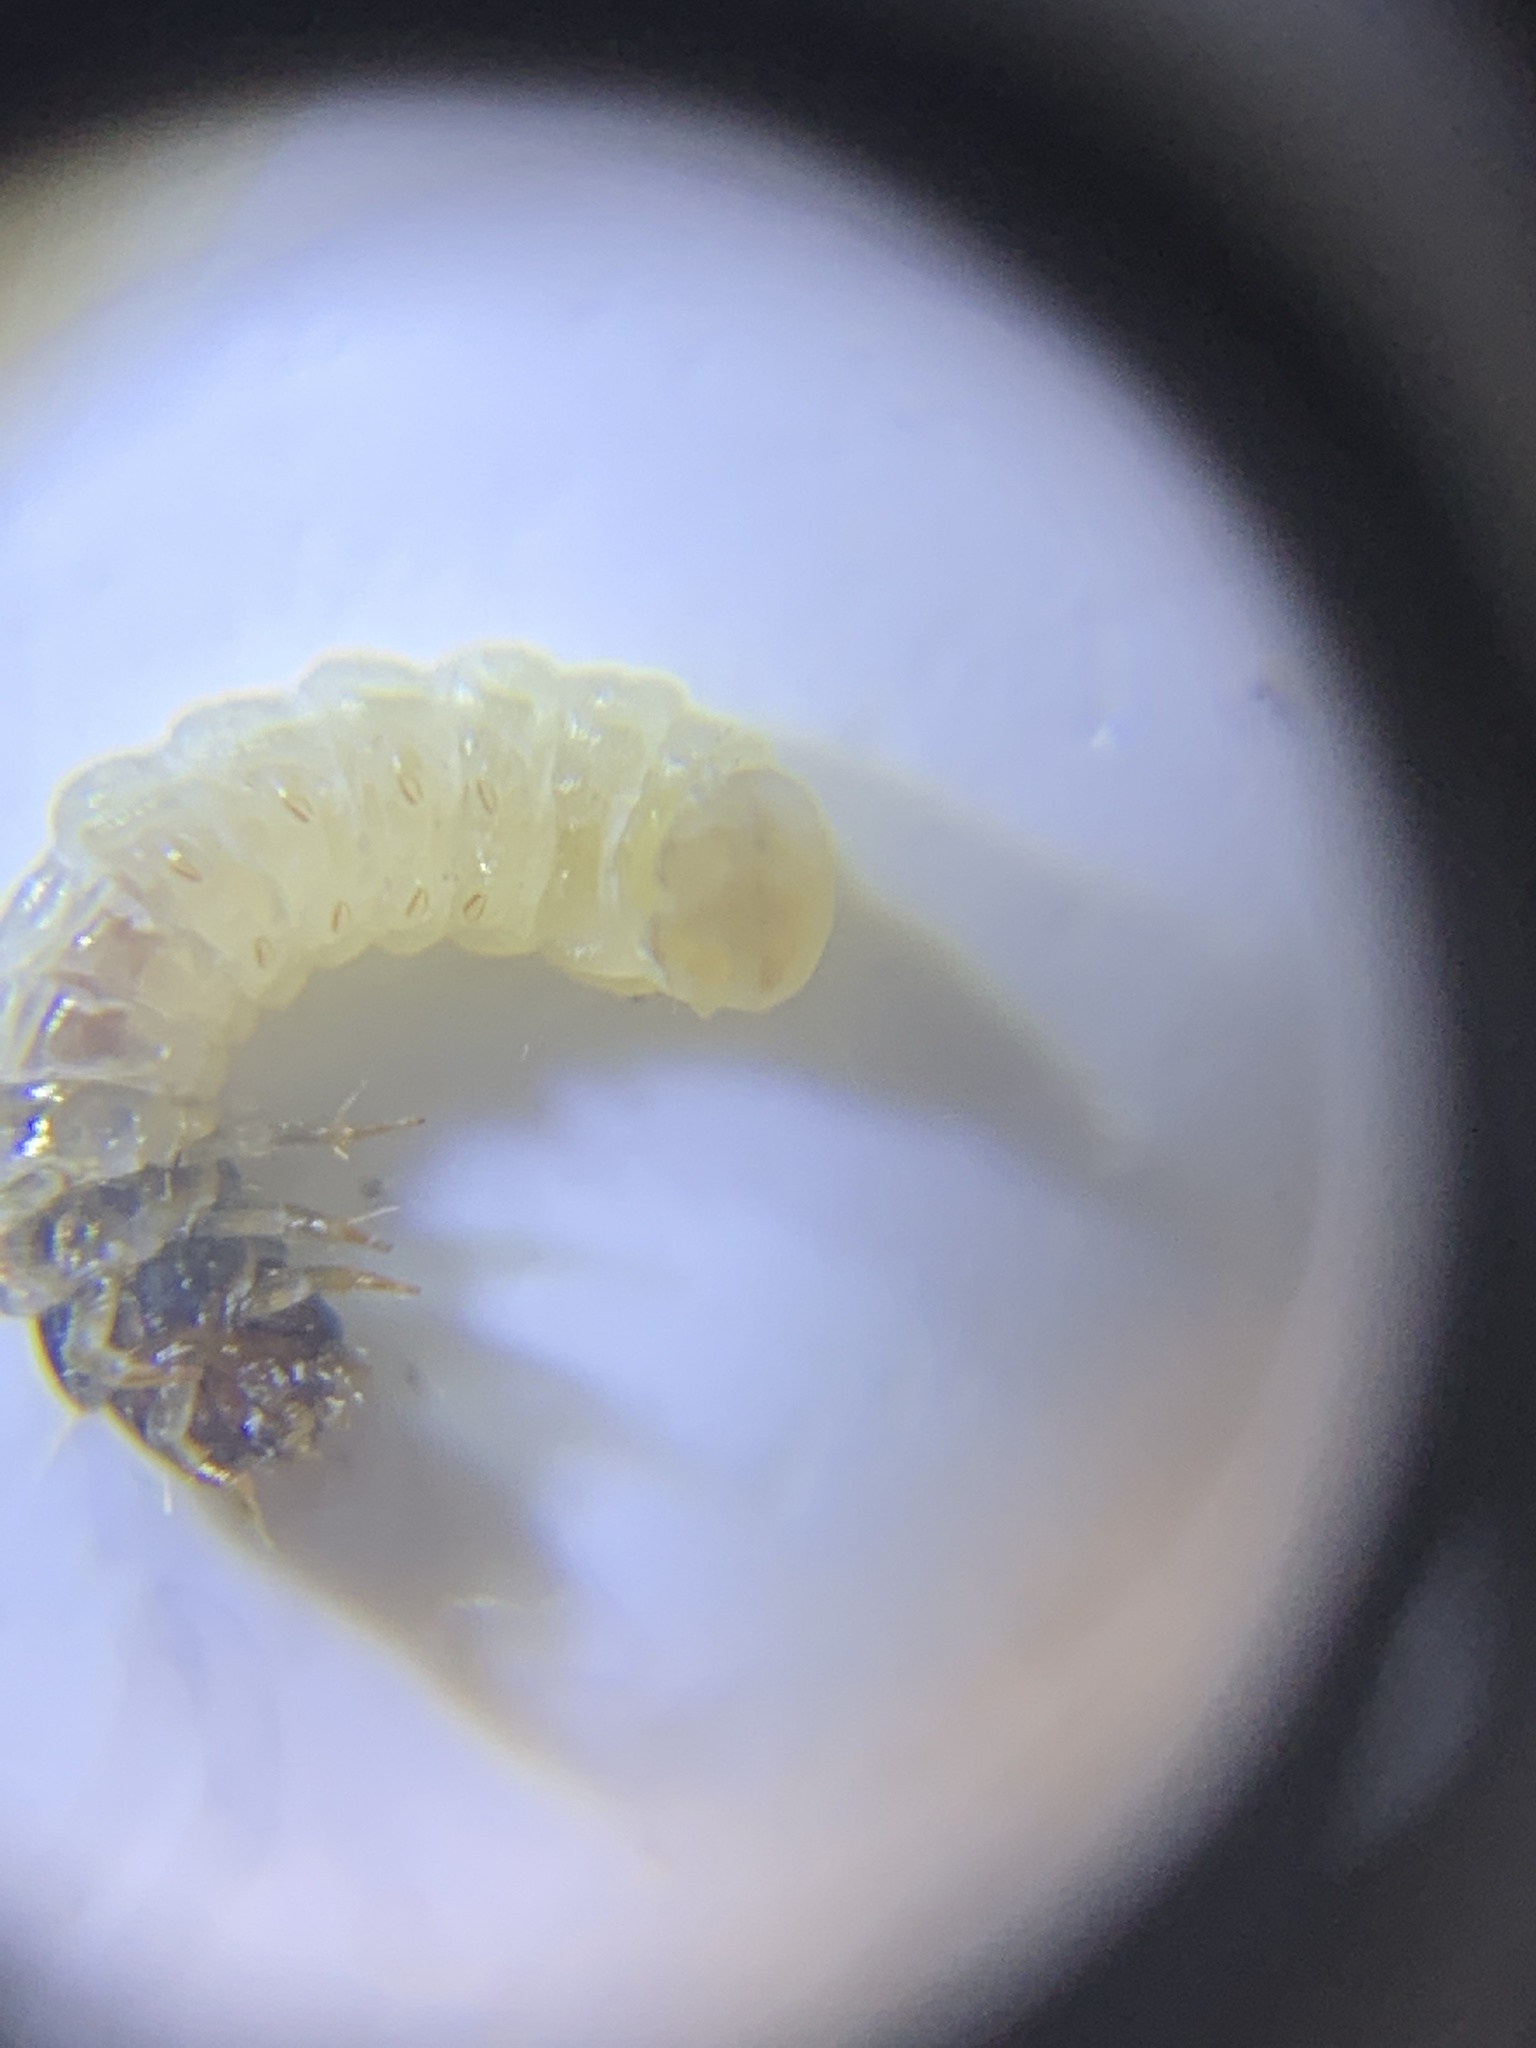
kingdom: Animalia
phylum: Arthropoda
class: Insecta
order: Lepidoptera
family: Tineidae
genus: Phereoeca
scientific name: Phereoeca uterella
